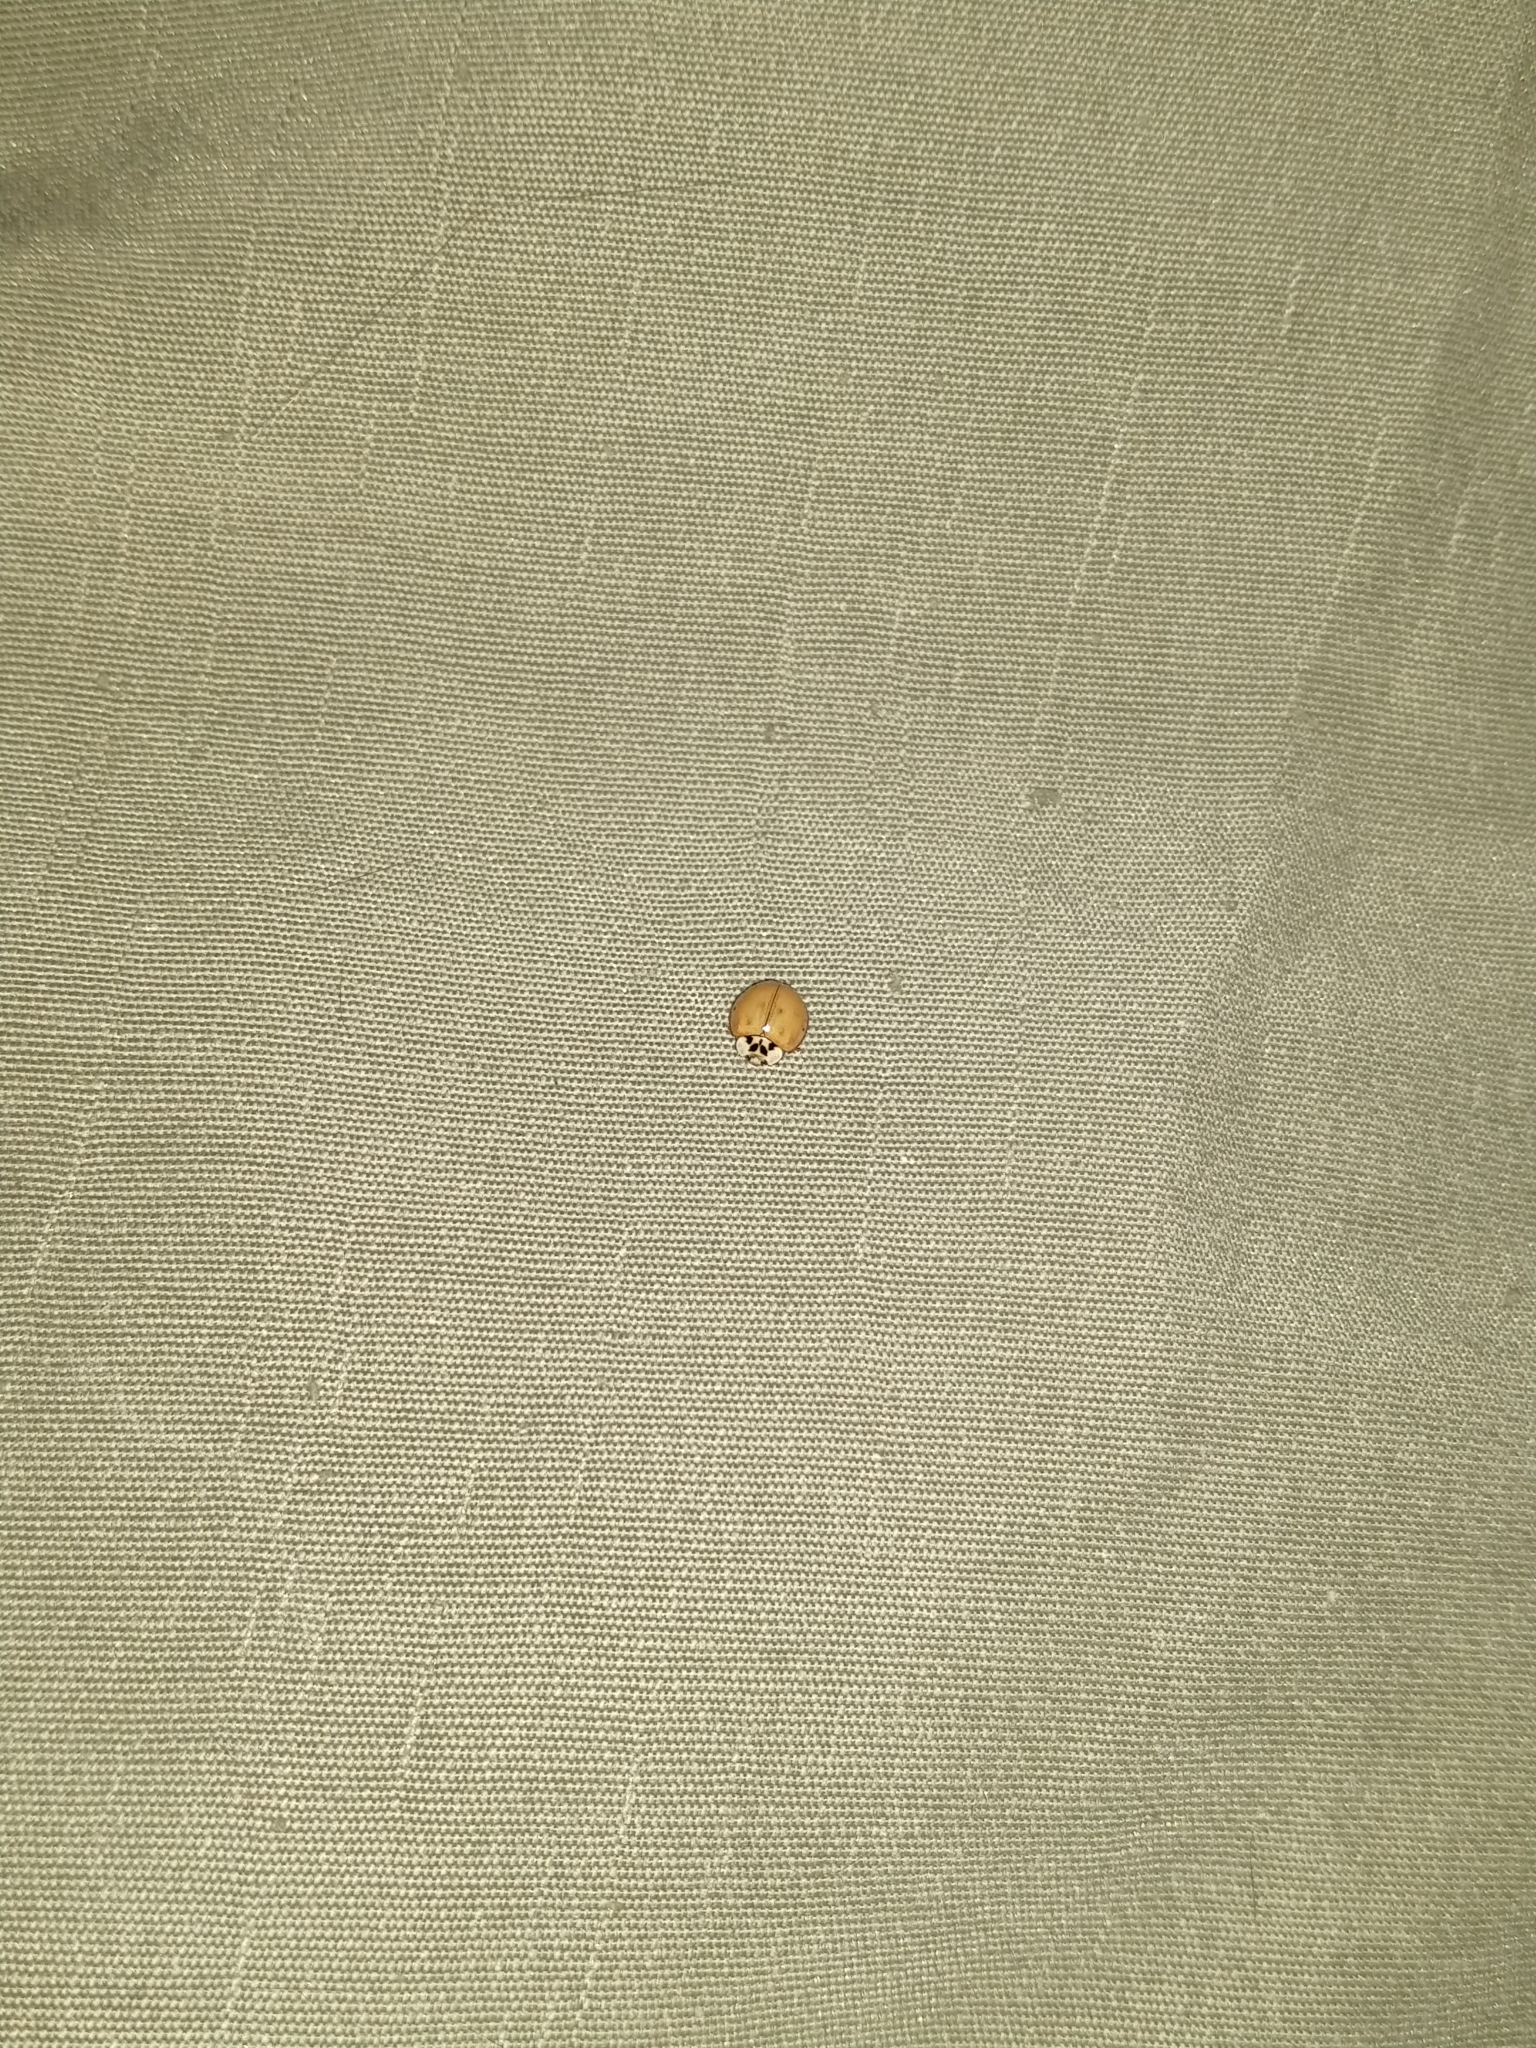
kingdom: Animalia
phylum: Arthropoda
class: Insecta
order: Coleoptera
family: Coccinellidae
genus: Harmonia
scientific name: Harmonia axyridis
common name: Harlequin ladybird
